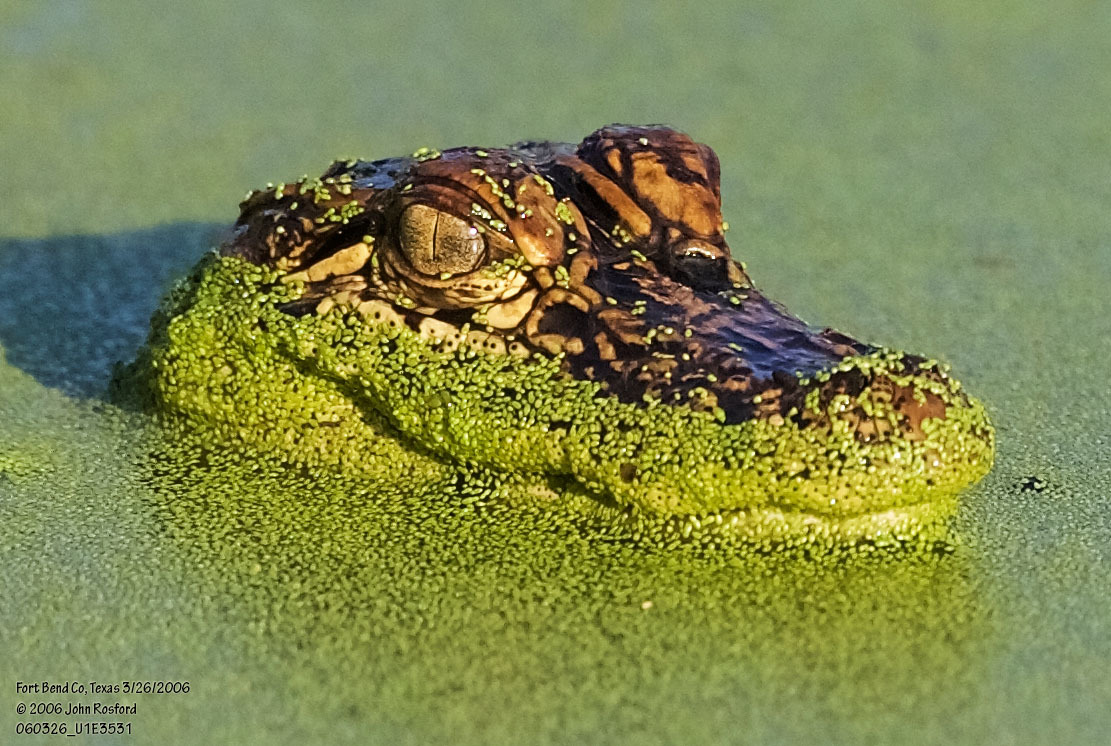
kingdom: Animalia
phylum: Chordata
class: Crocodylia
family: Alligatoridae
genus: Alligator
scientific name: Alligator mississippiensis
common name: American alligator
